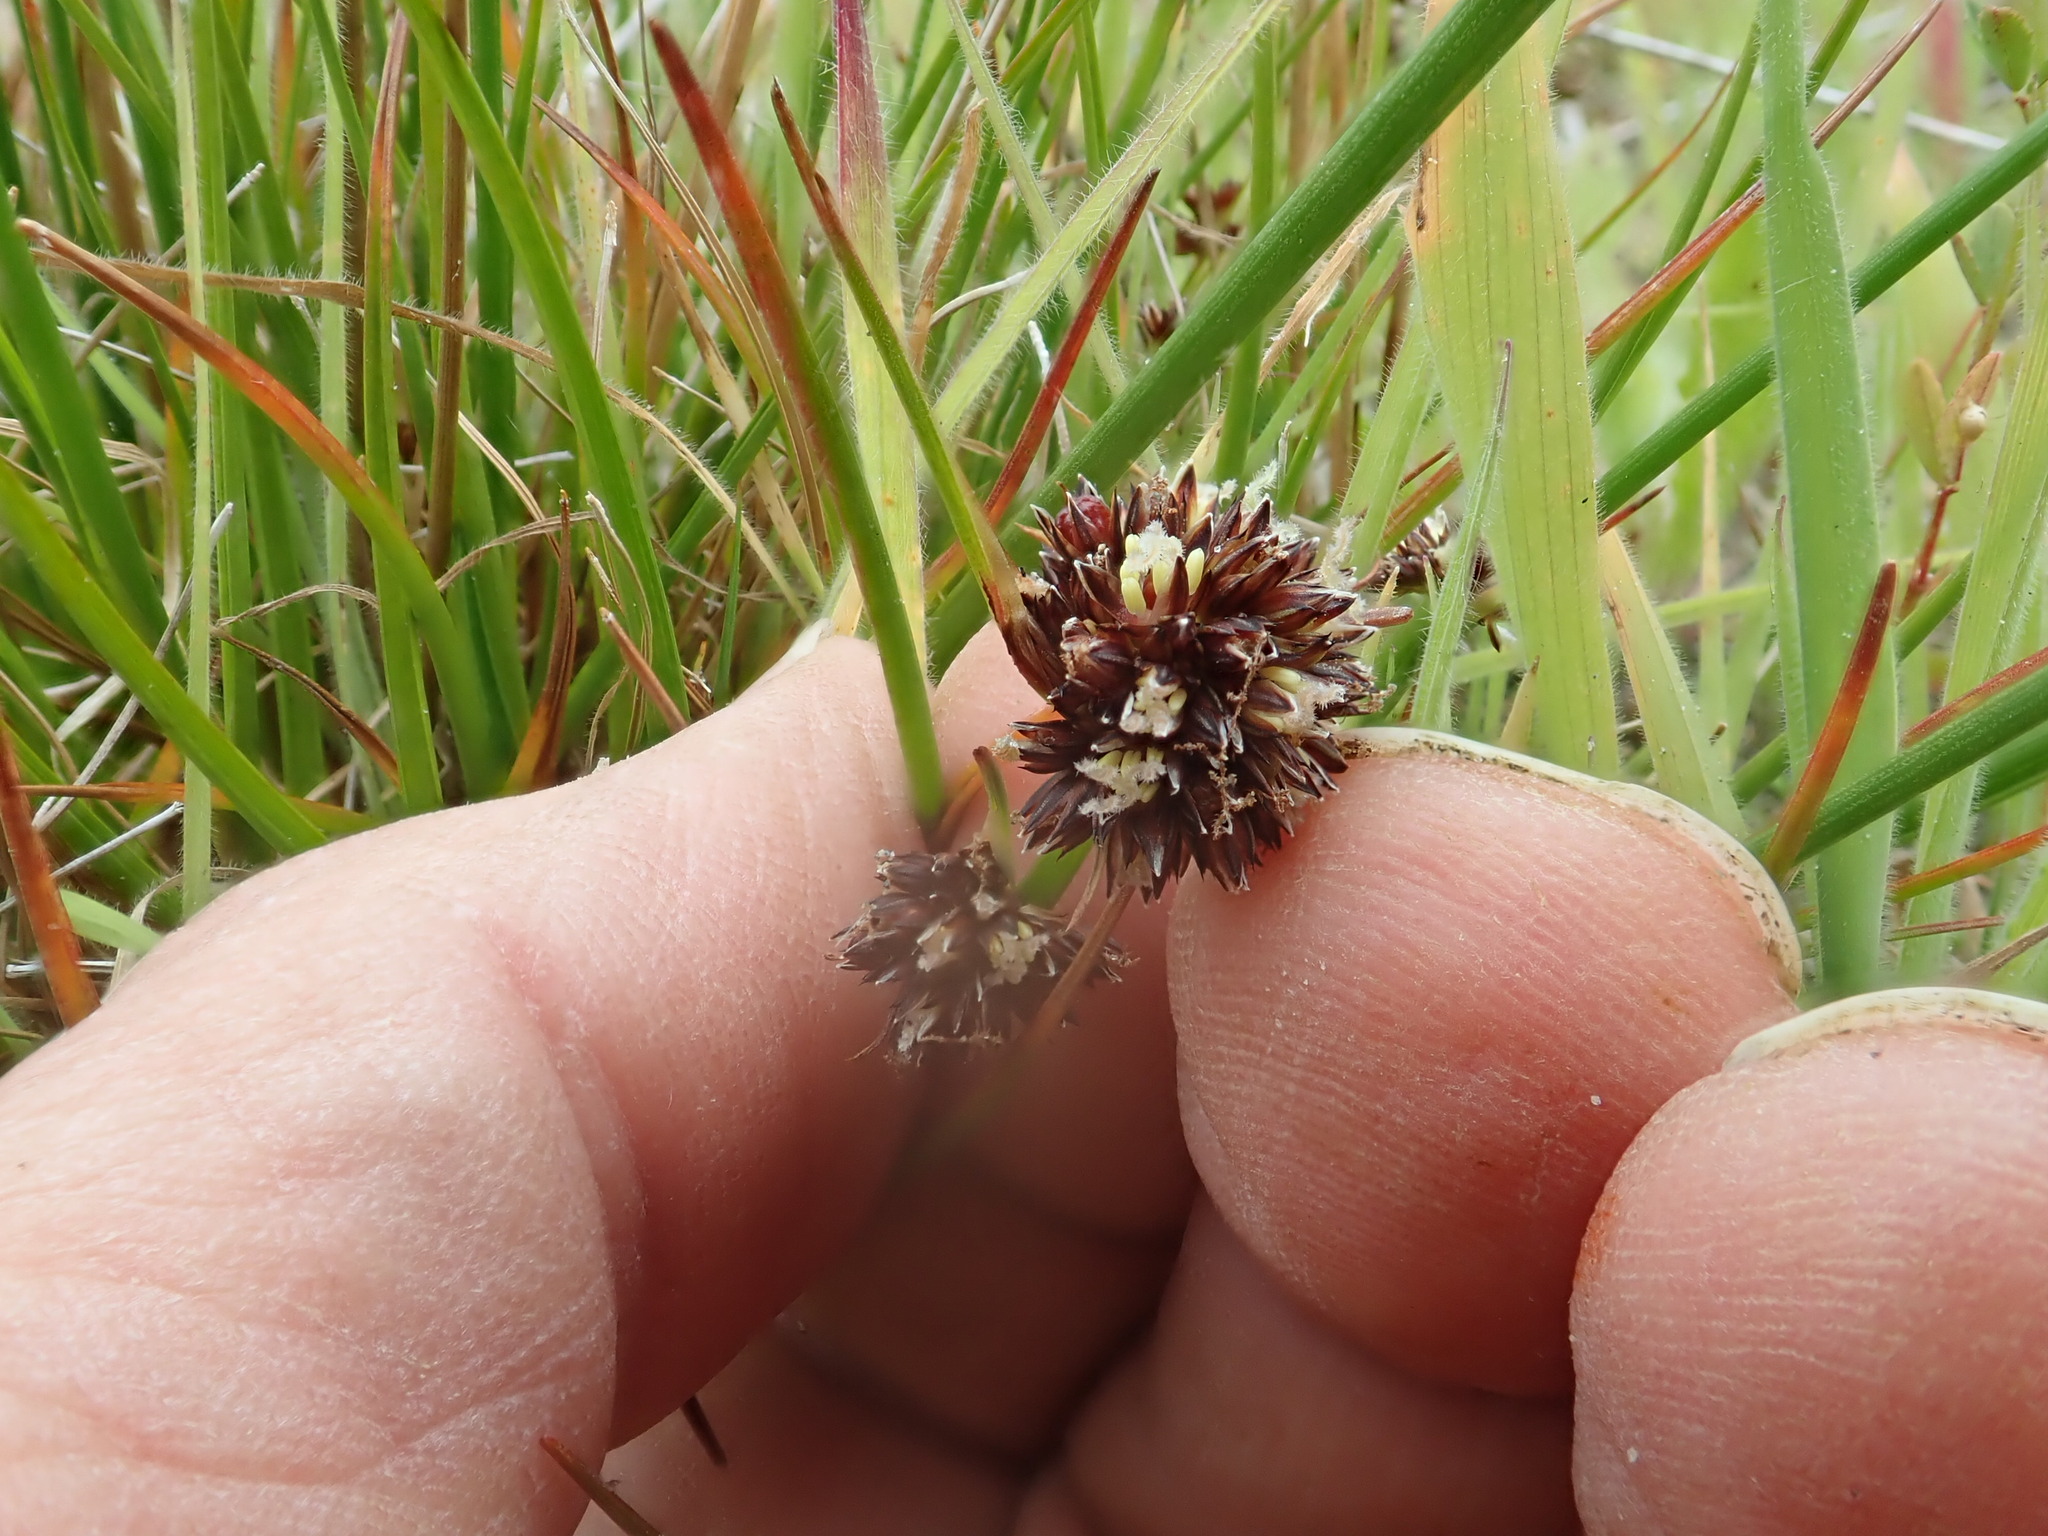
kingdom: Plantae
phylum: Tracheophyta
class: Liliopsida
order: Poales
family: Juncaceae
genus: Juncus
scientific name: Juncus caespiticius
